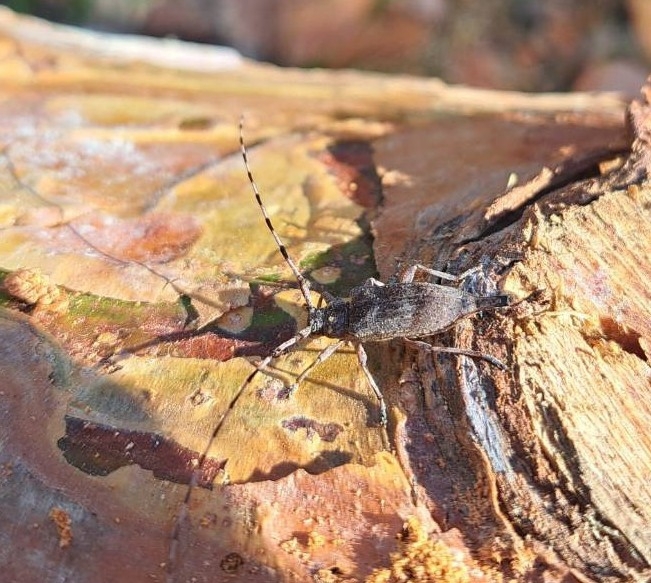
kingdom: Animalia
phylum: Arthropoda
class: Insecta
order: Coleoptera
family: Cerambycidae
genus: Acanthocinus
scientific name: Acanthocinus aedilis
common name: Timberman beetle
